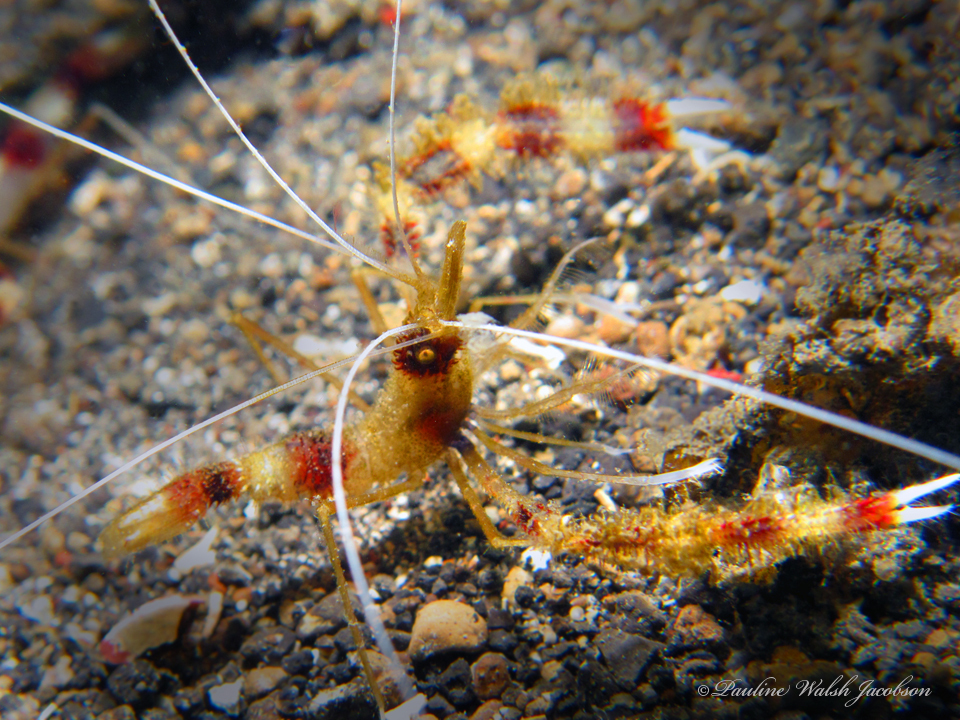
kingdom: Animalia
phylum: Arthropoda
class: Malacostraca
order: Decapoda
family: Stenopodidae
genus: Stenopus
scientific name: Stenopus hispidus
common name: Banded coral shrimp
